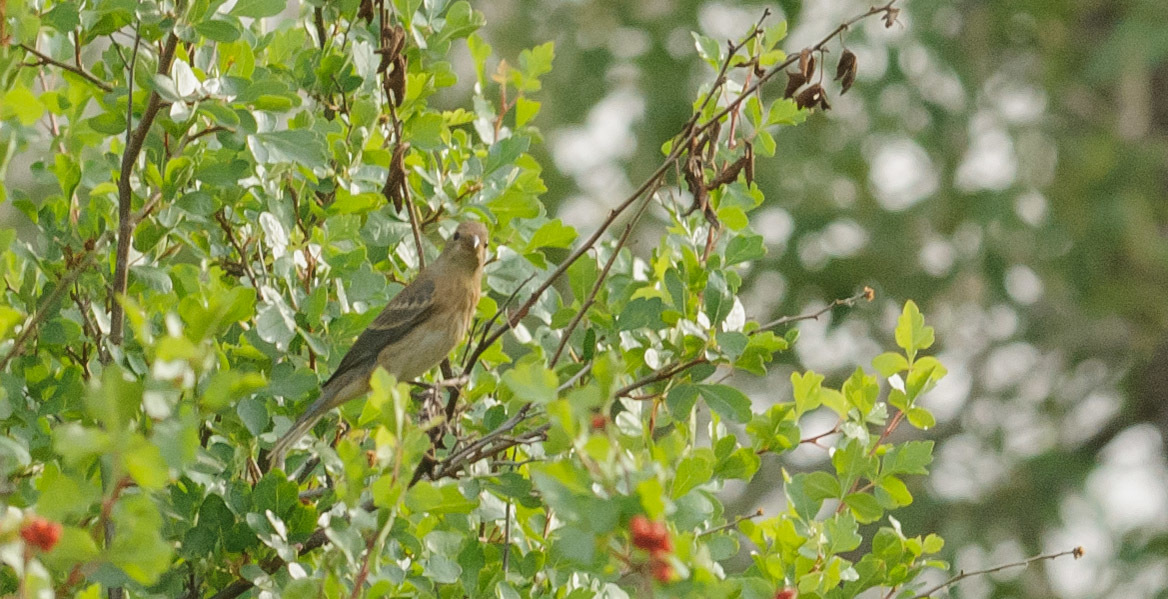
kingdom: Animalia
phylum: Chordata
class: Aves
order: Passeriformes
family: Cardinalidae
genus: Passerina
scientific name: Passerina amoena
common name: Lazuli bunting
